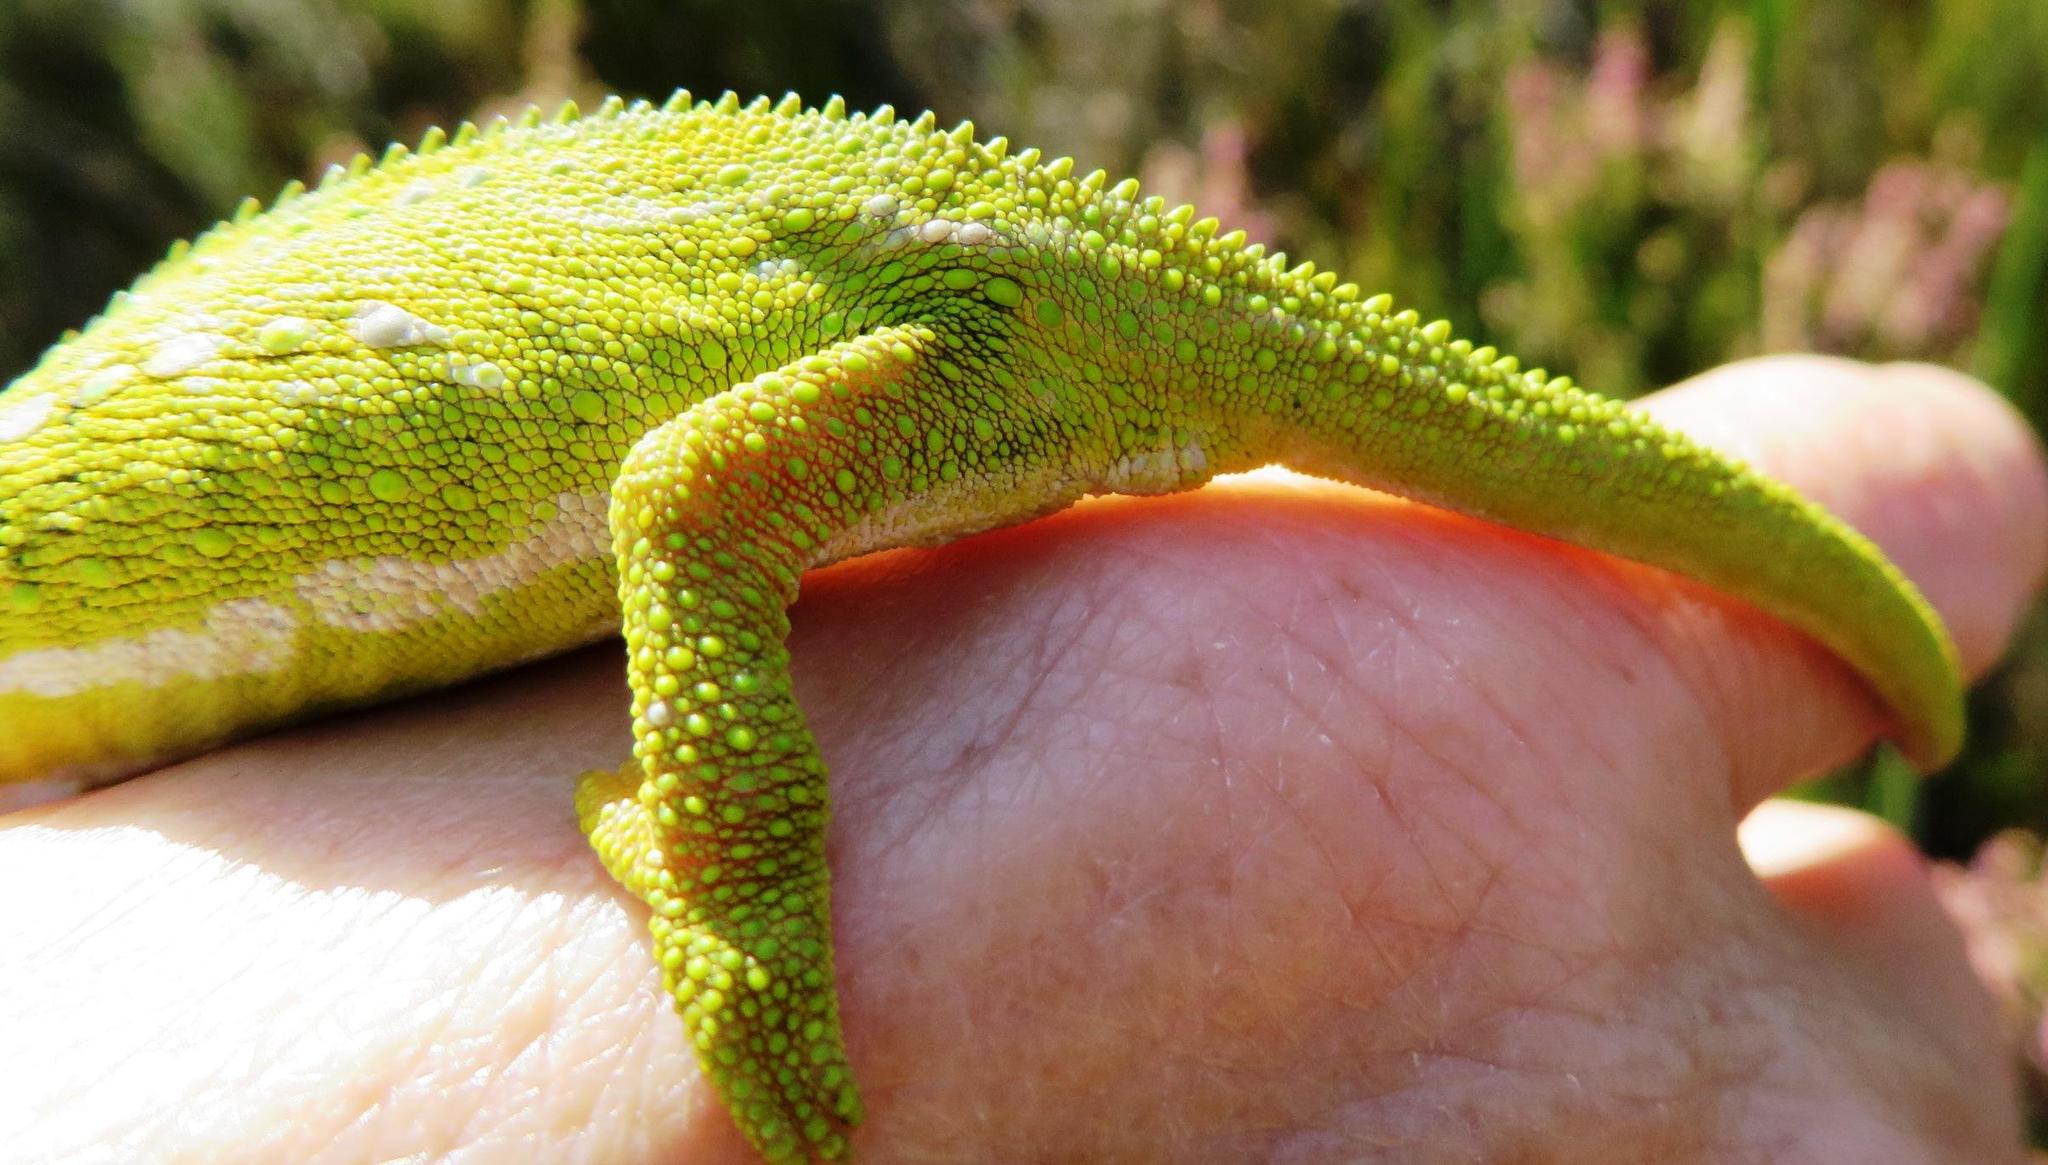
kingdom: Animalia
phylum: Chordata
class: Squamata
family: Chamaeleonidae
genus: Bradypodion
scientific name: Bradypodion pumilum
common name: Cape dwarf chameleon
